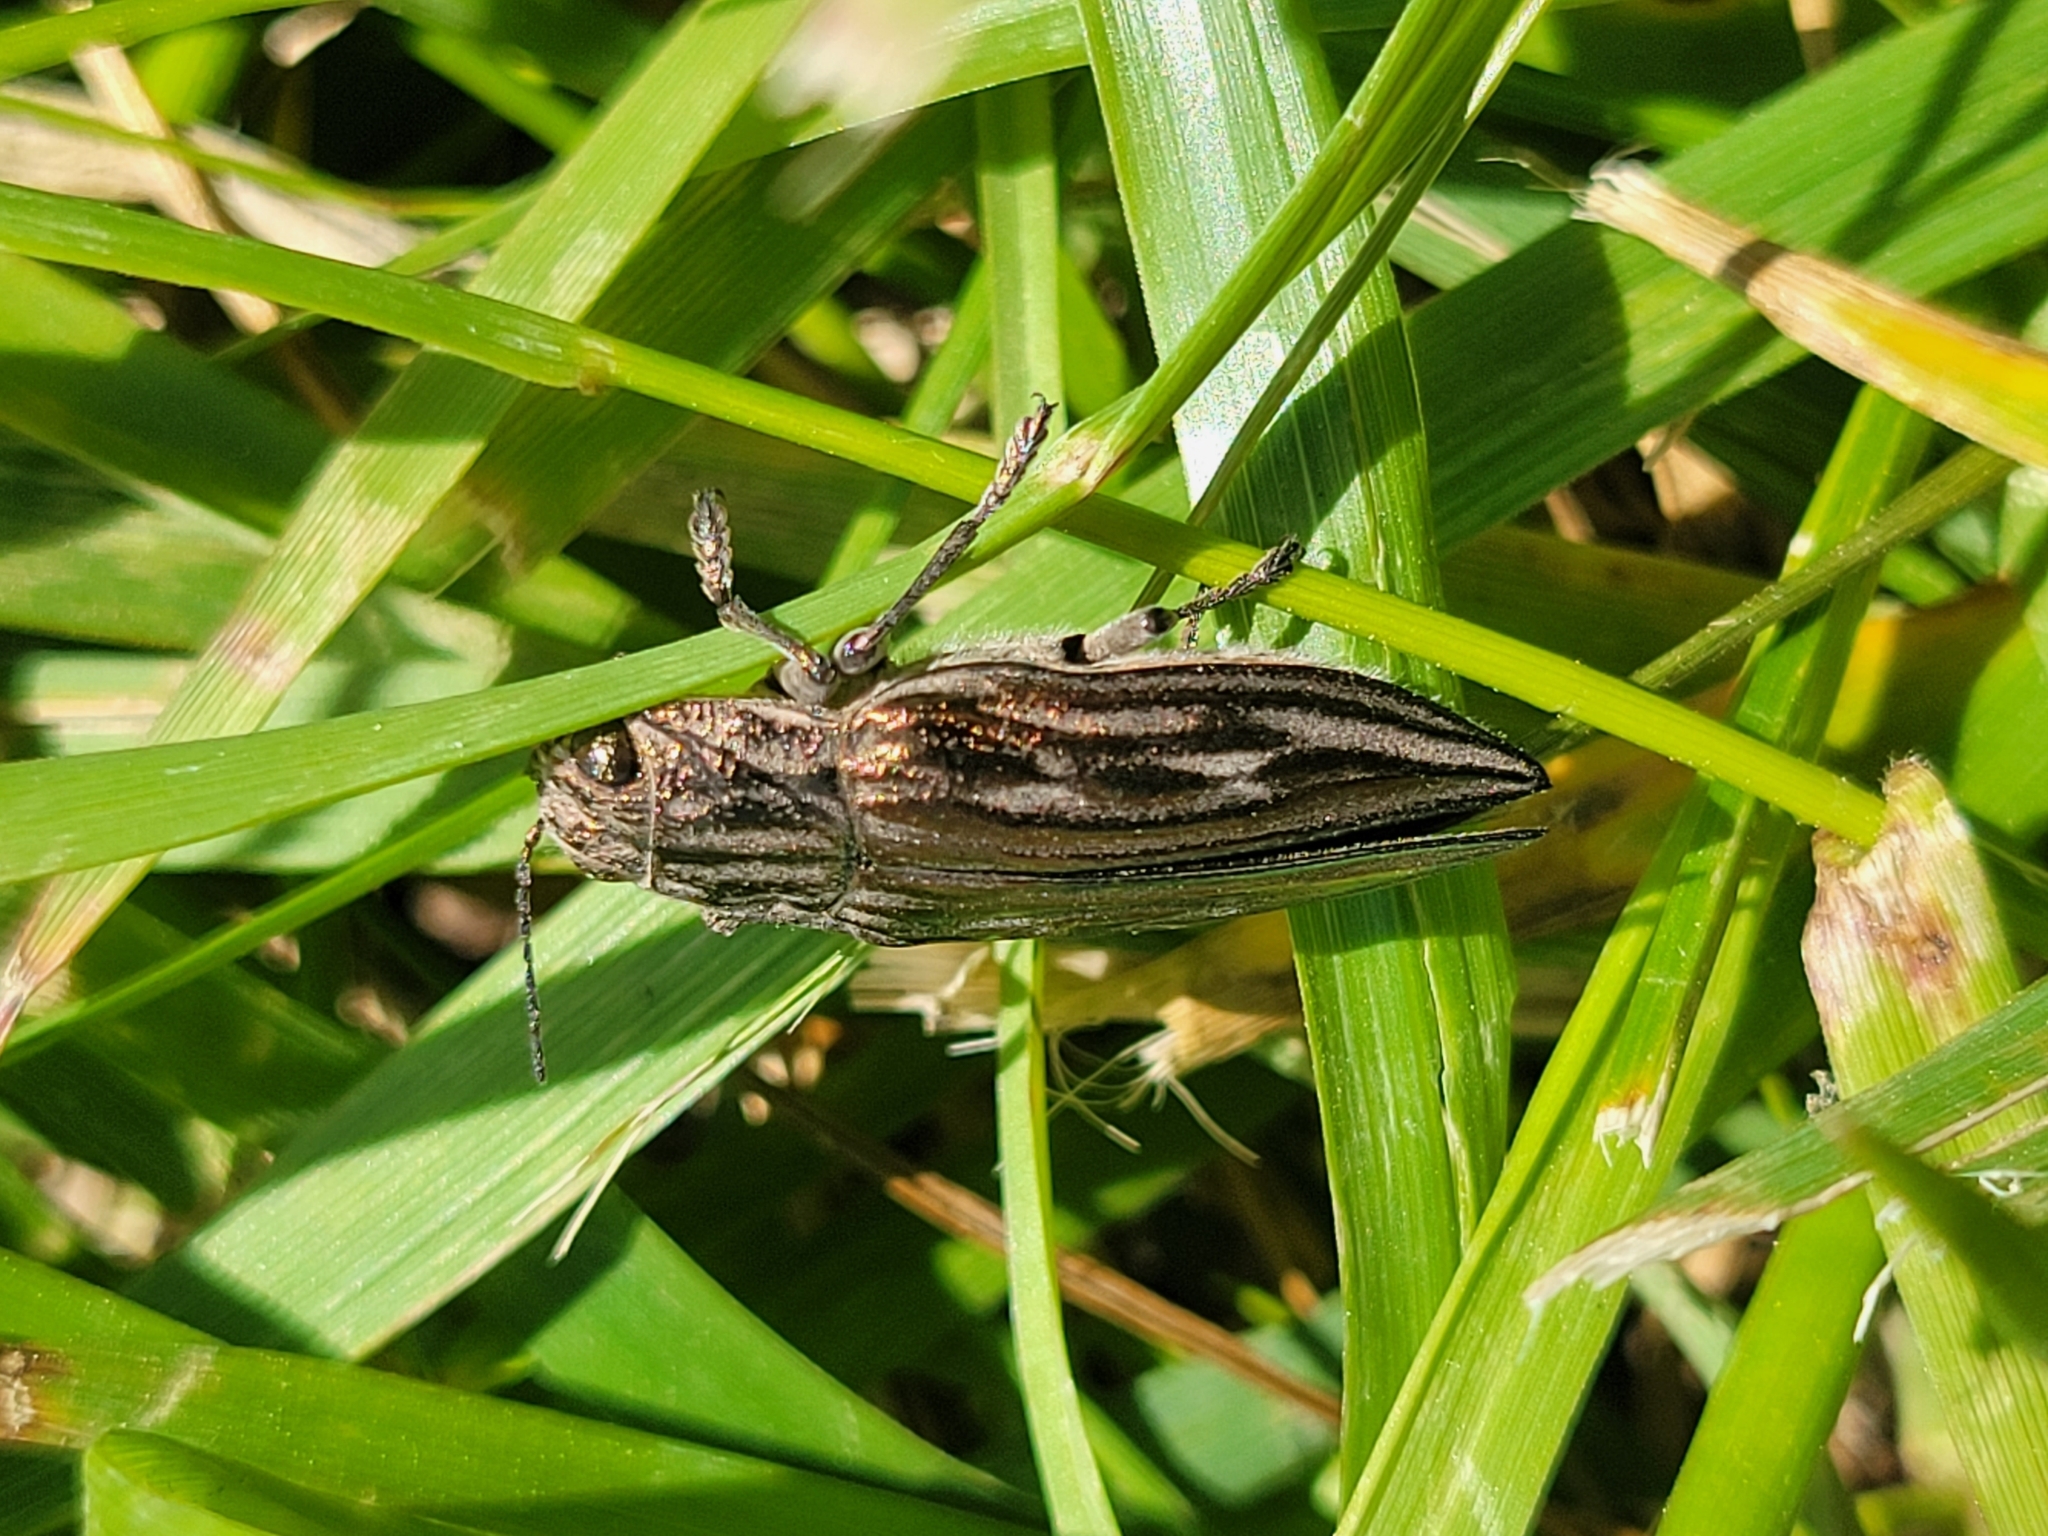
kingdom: Animalia
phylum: Arthropoda
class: Insecta
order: Coleoptera
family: Buprestidae
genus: Chalcophora
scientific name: Chalcophora georgiana
